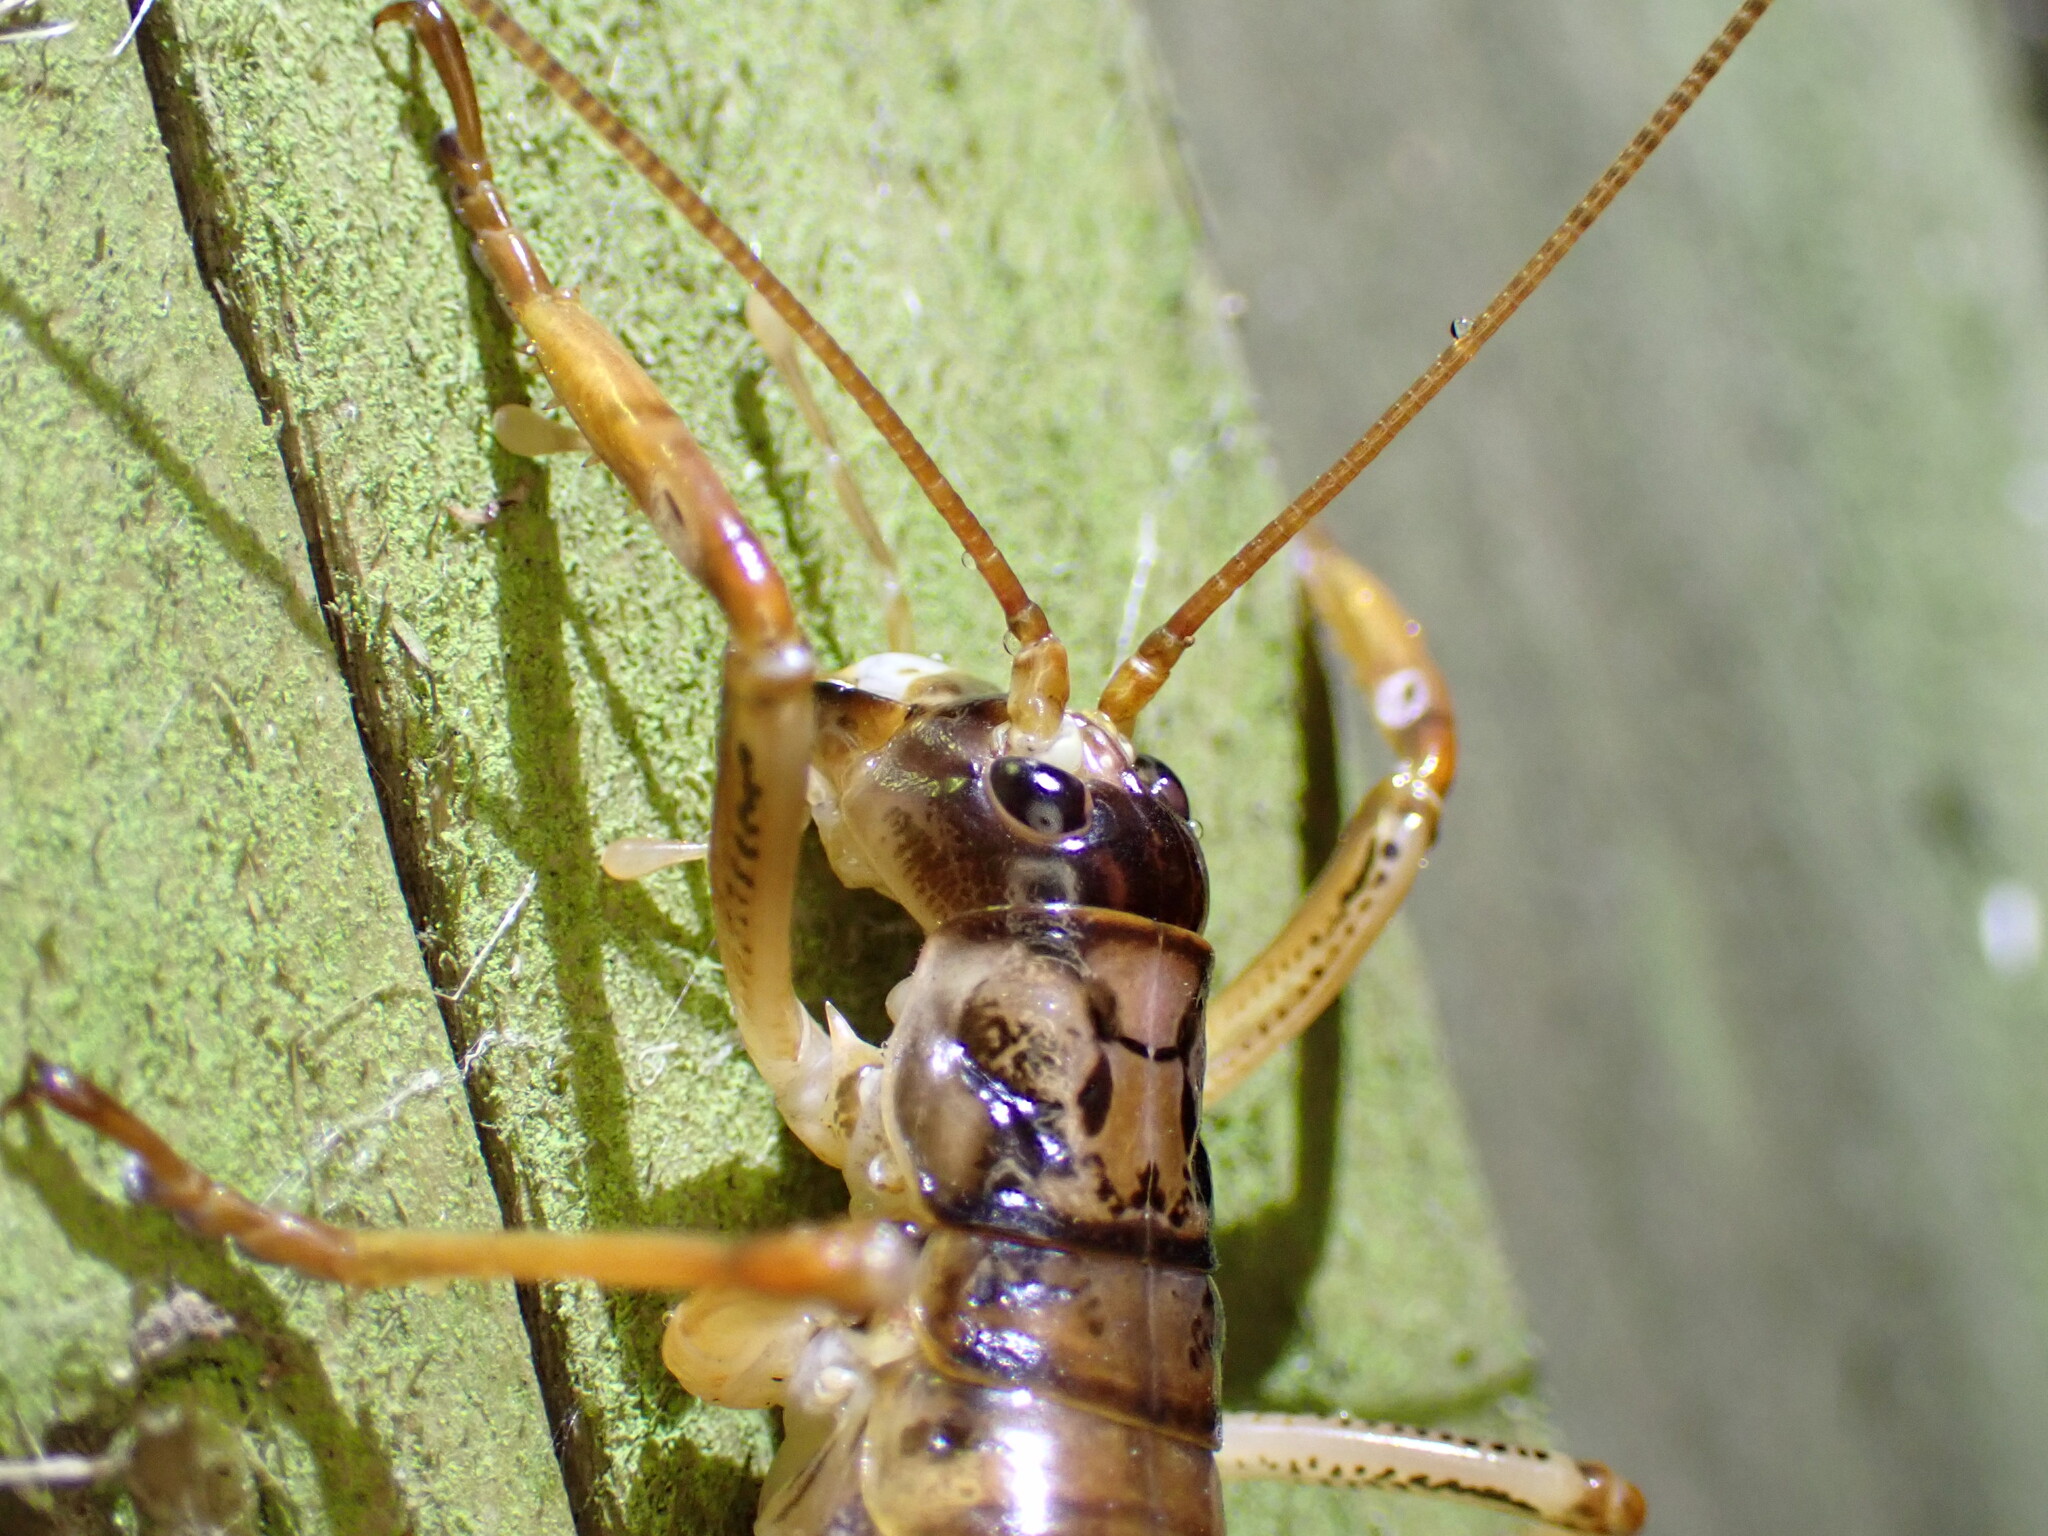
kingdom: Animalia
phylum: Arthropoda
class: Insecta
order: Orthoptera
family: Anostostomatidae
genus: Hemideina
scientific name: Hemideina thoracica
